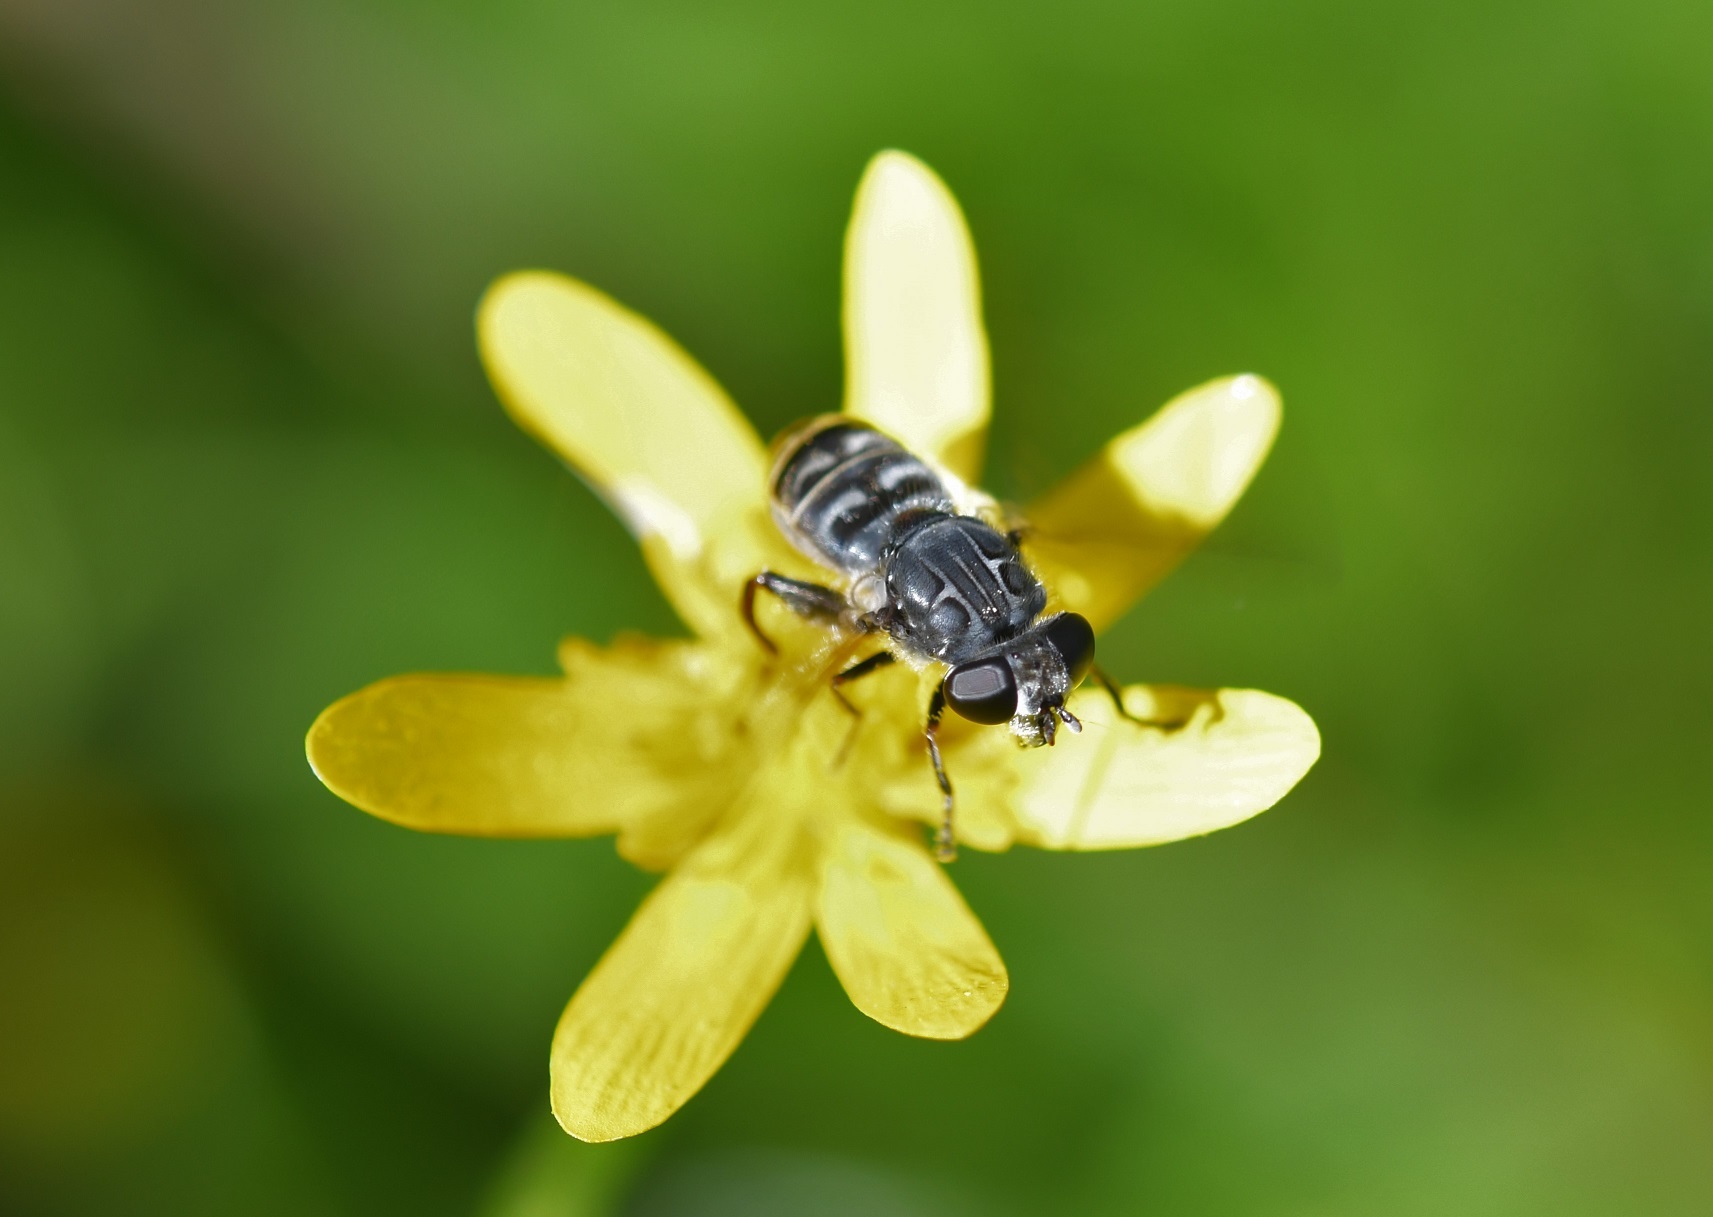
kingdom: Animalia
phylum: Arthropoda
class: Insecta
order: Diptera
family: Syrphidae
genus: Asemosyrphus
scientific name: Asemosyrphus
